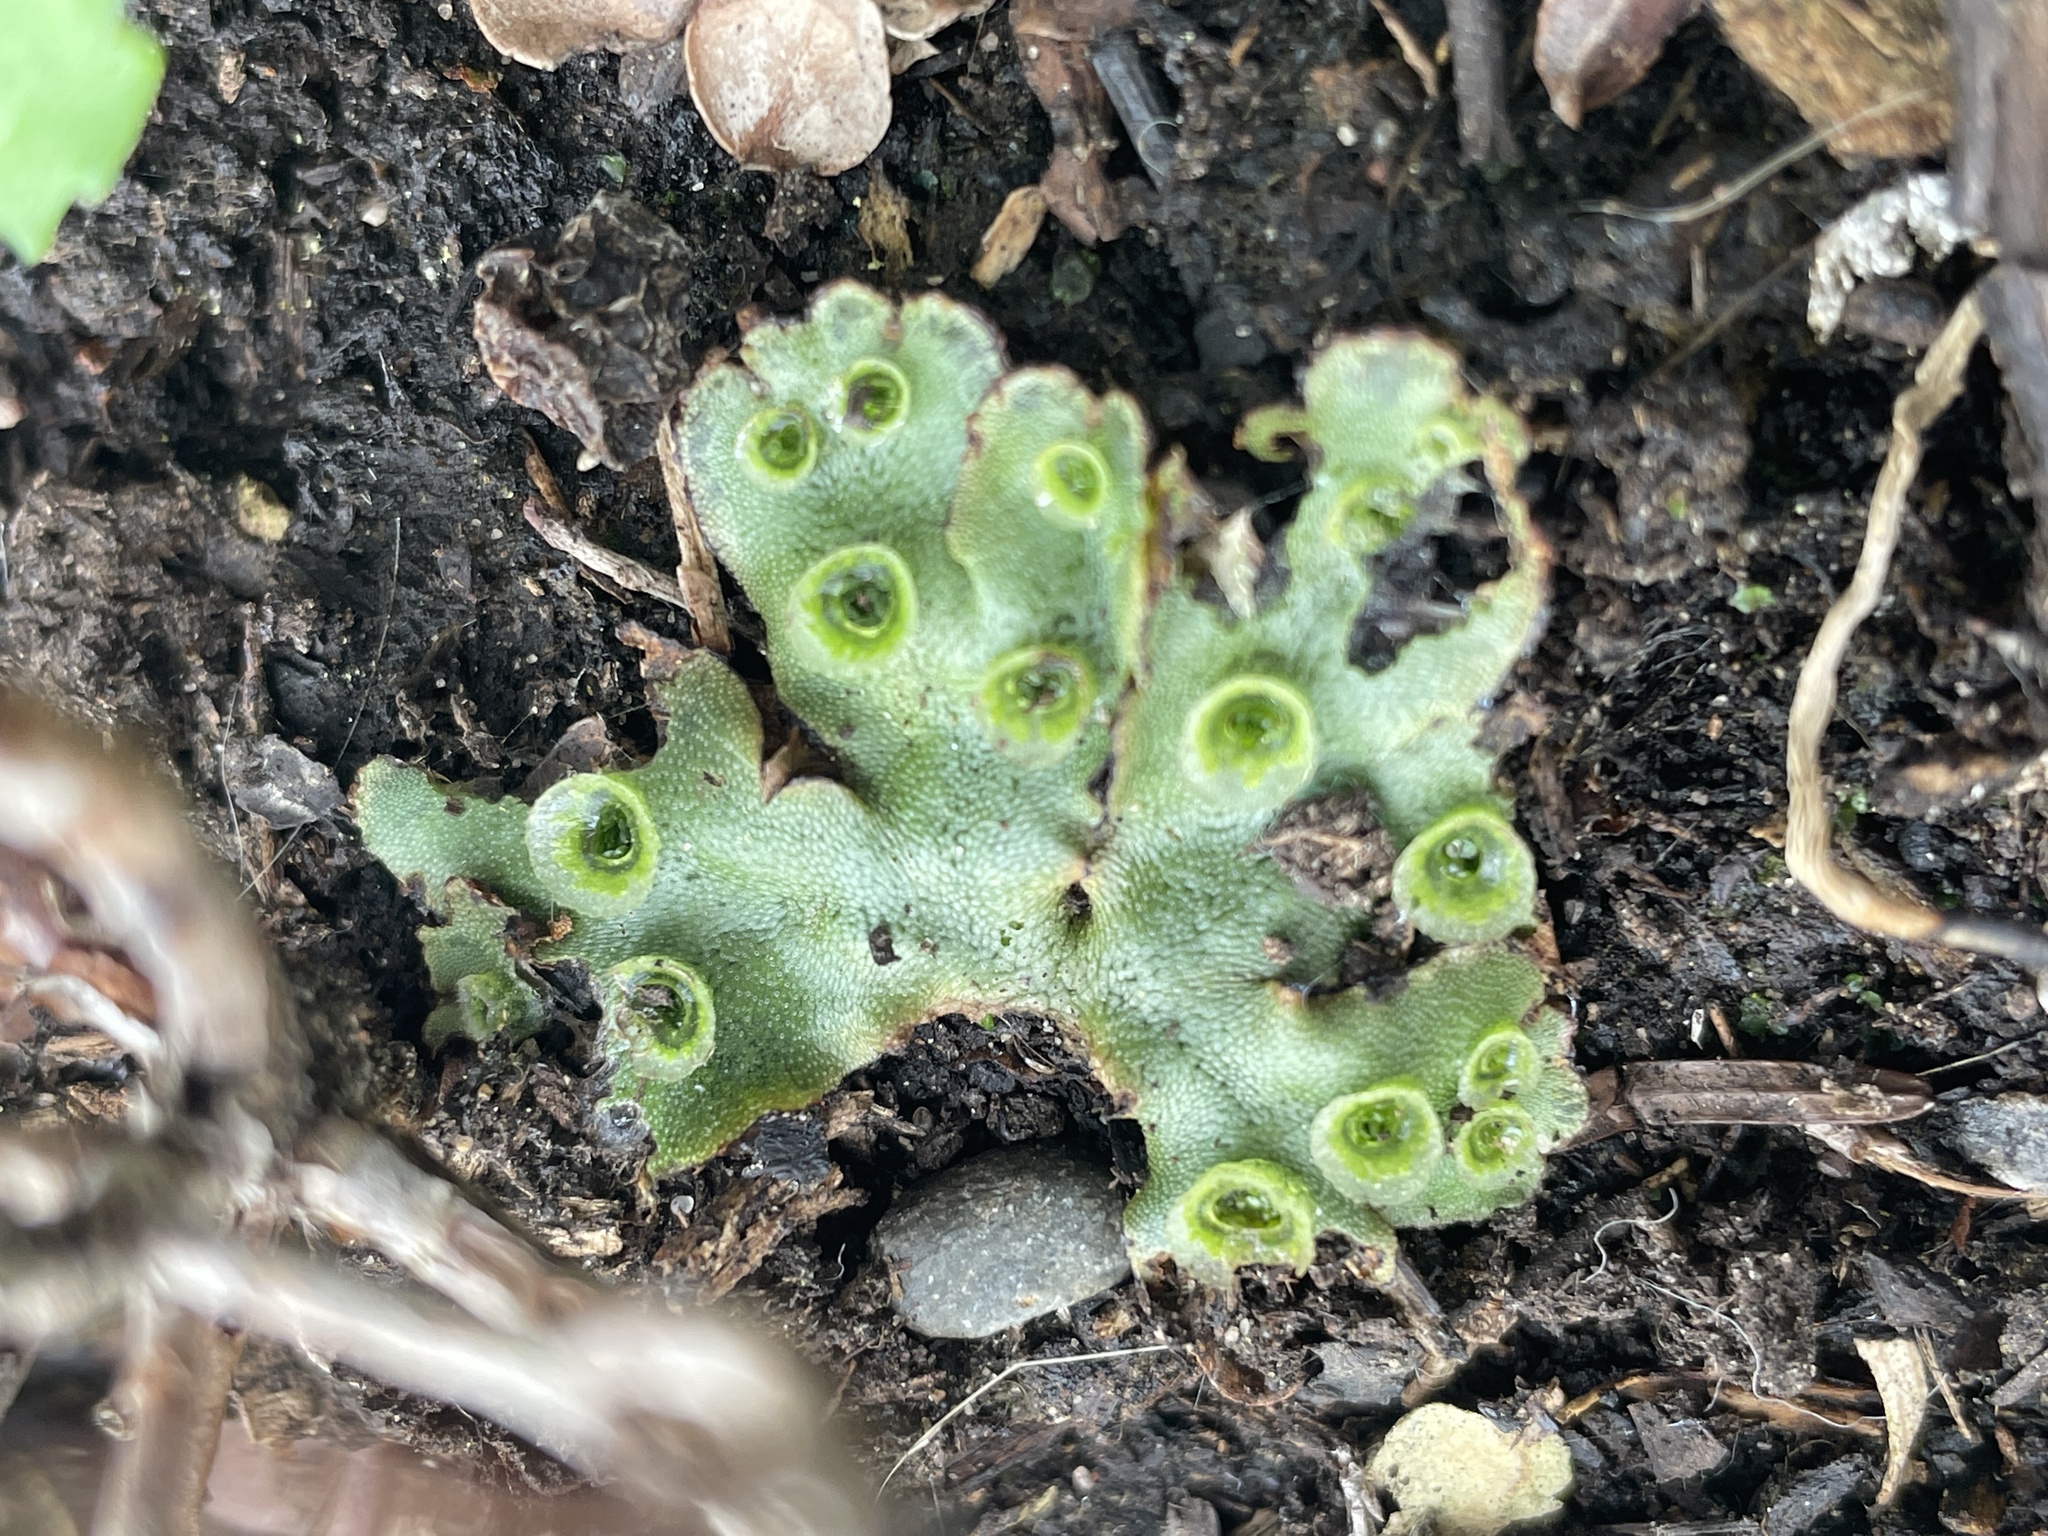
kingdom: Plantae
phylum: Marchantiophyta
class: Marchantiopsida
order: Marchantiales
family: Marchantiaceae
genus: Marchantia
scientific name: Marchantia polymorpha
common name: Common liverwort
